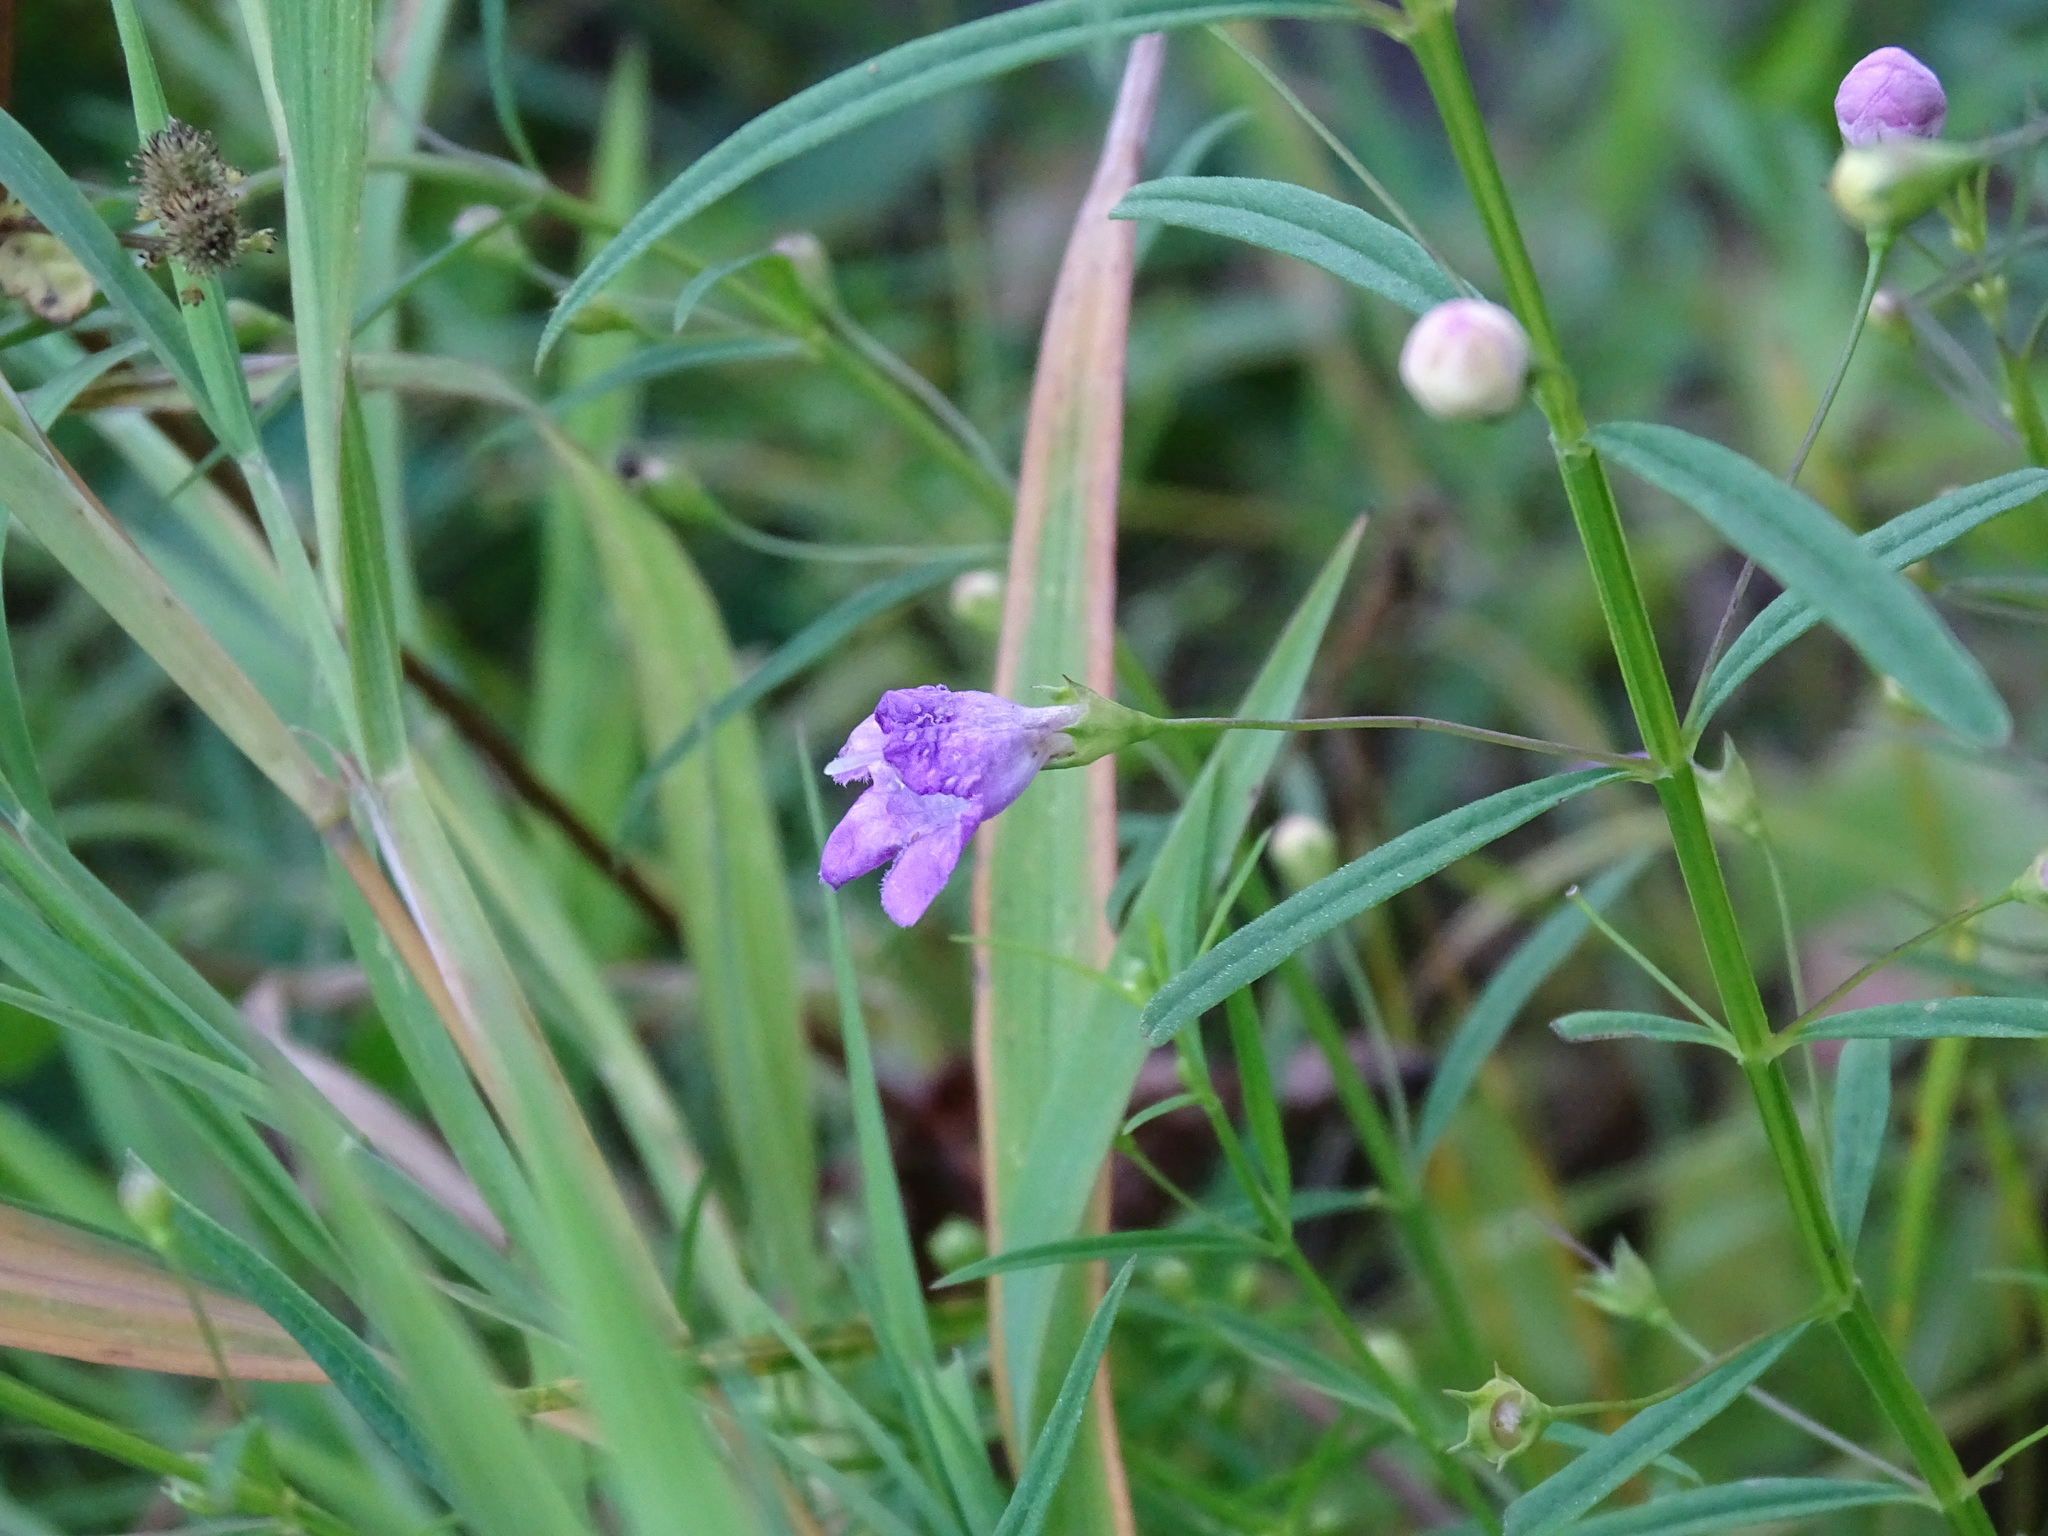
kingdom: Plantae
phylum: Tracheophyta
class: Magnoliopsida
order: Lamiales
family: Orobanchaceae
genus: Agalinis
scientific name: Agalinis tenuifolia
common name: Slender agalinis
